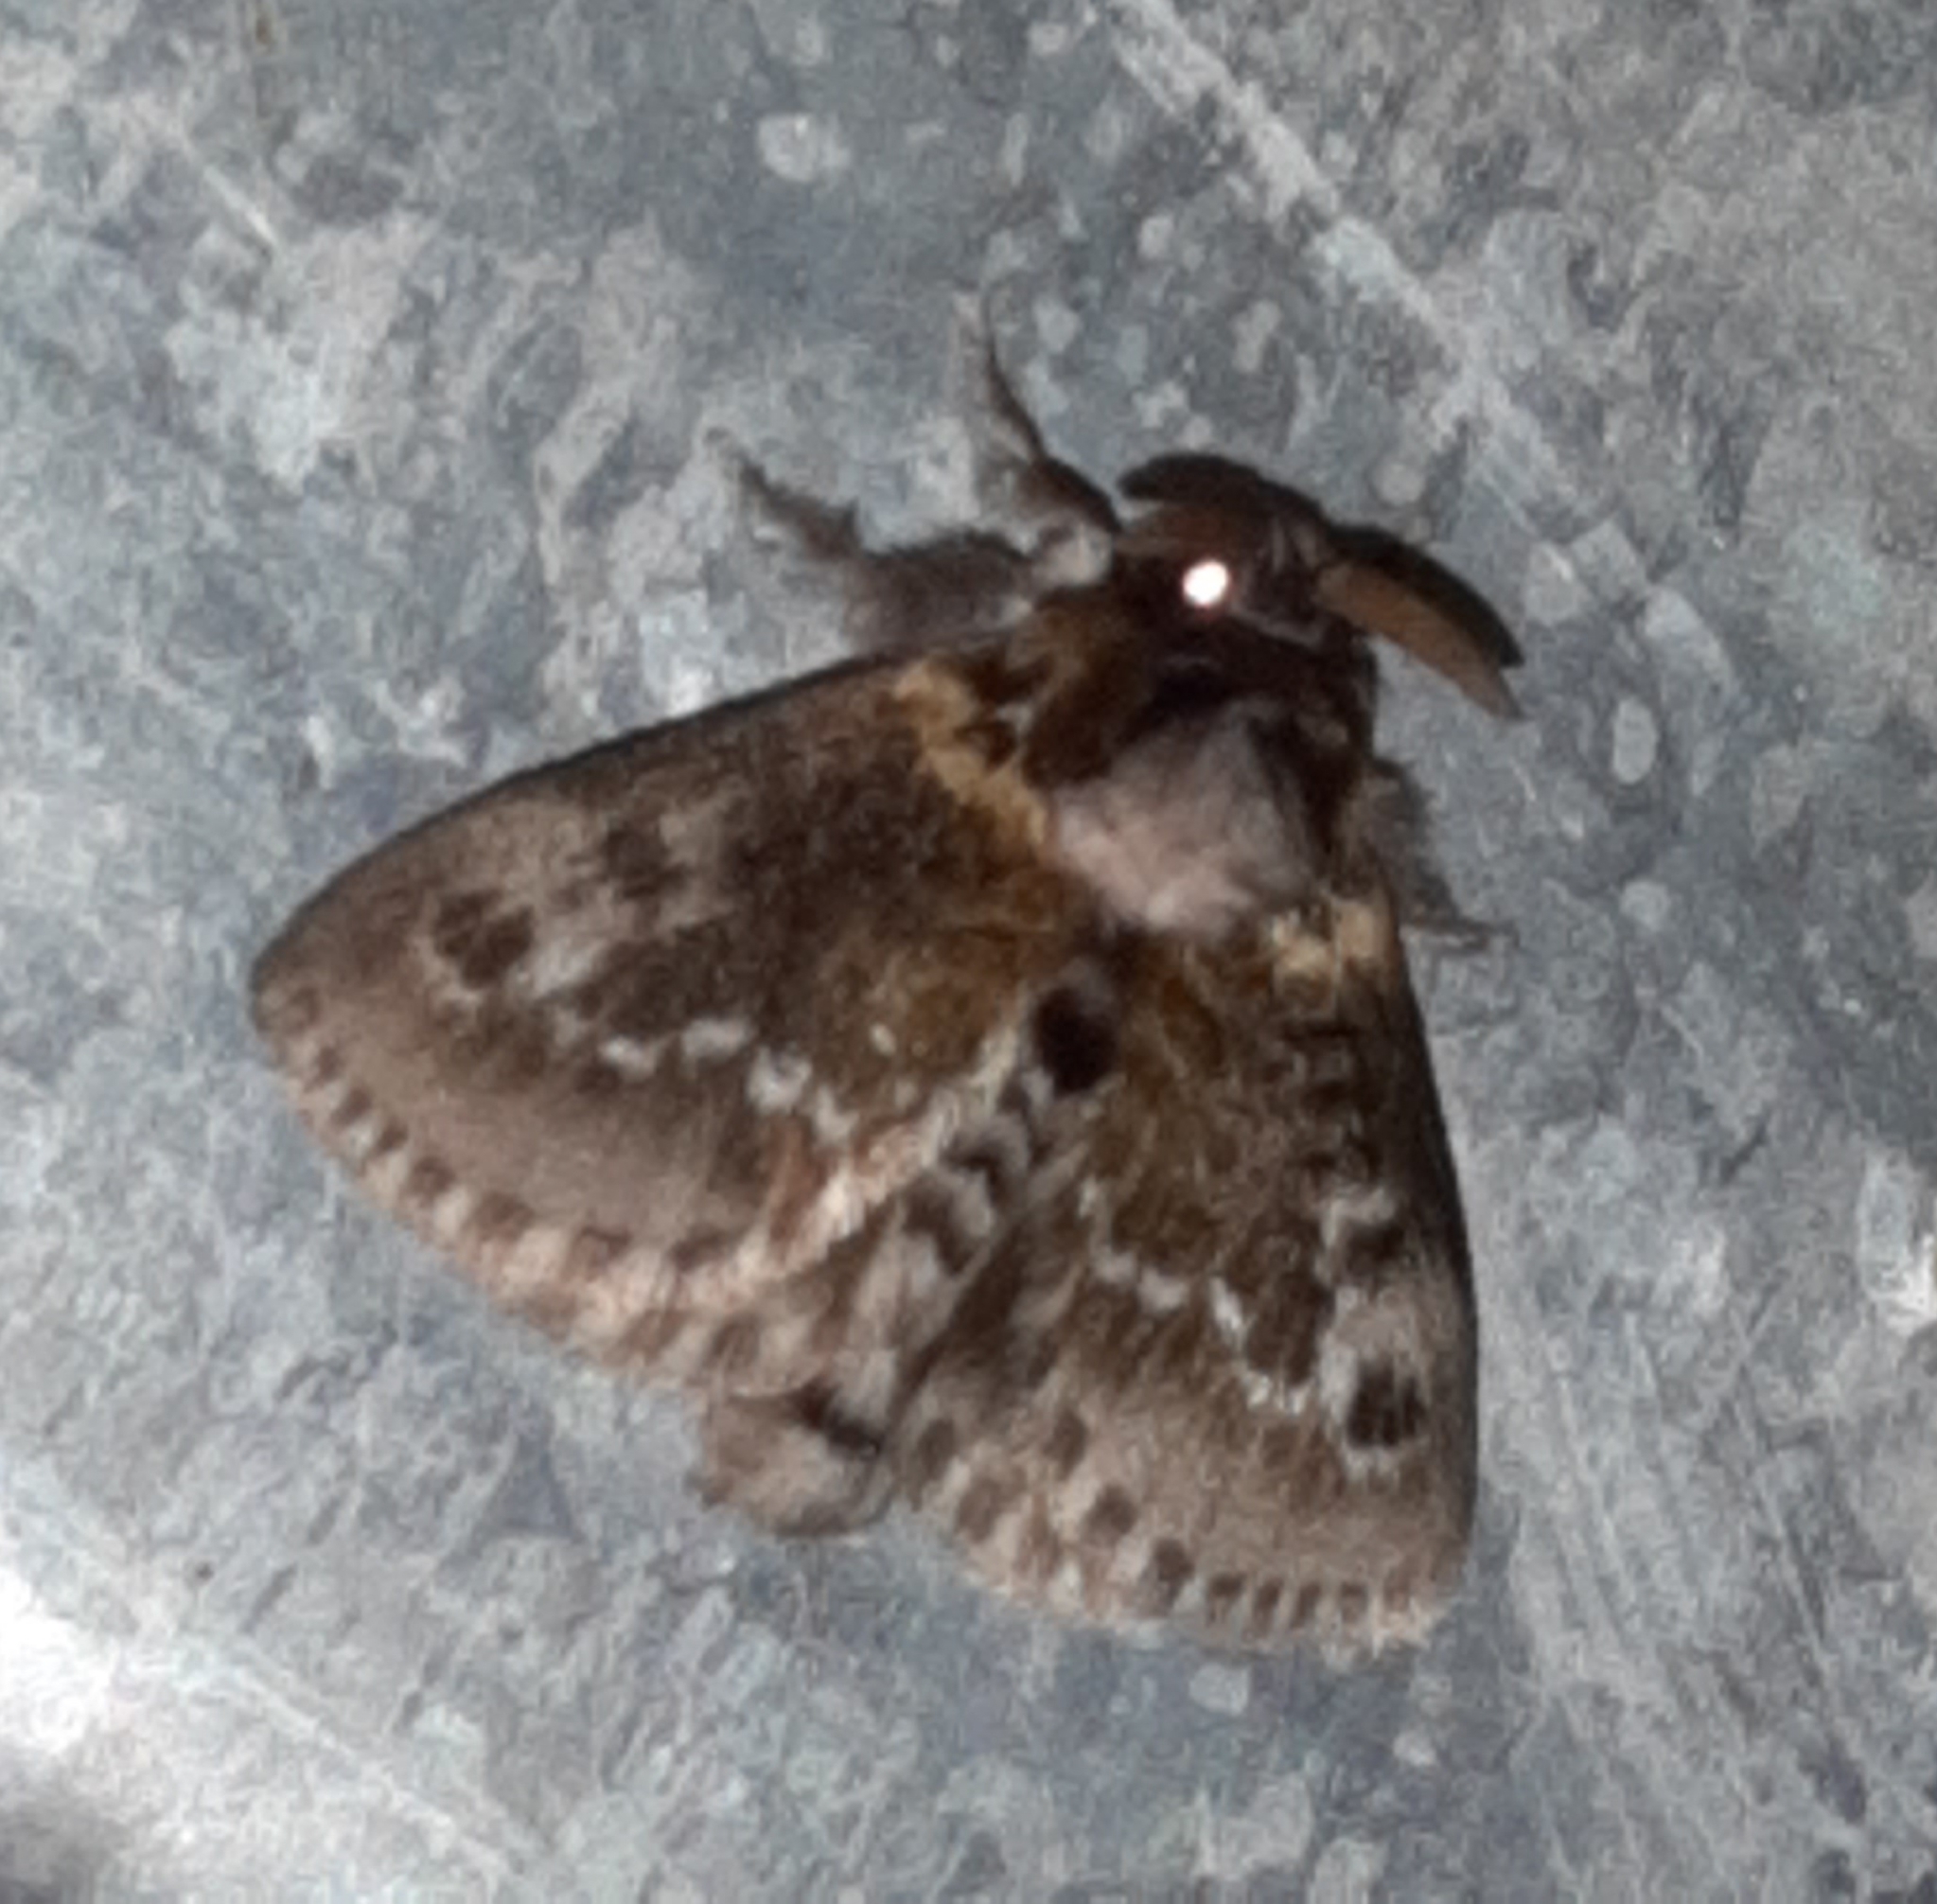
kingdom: Animalia
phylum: Arthropoda
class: Insecta
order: Lepidoptera
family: Megalopygidae
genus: Podalia
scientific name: Podalia habitus
